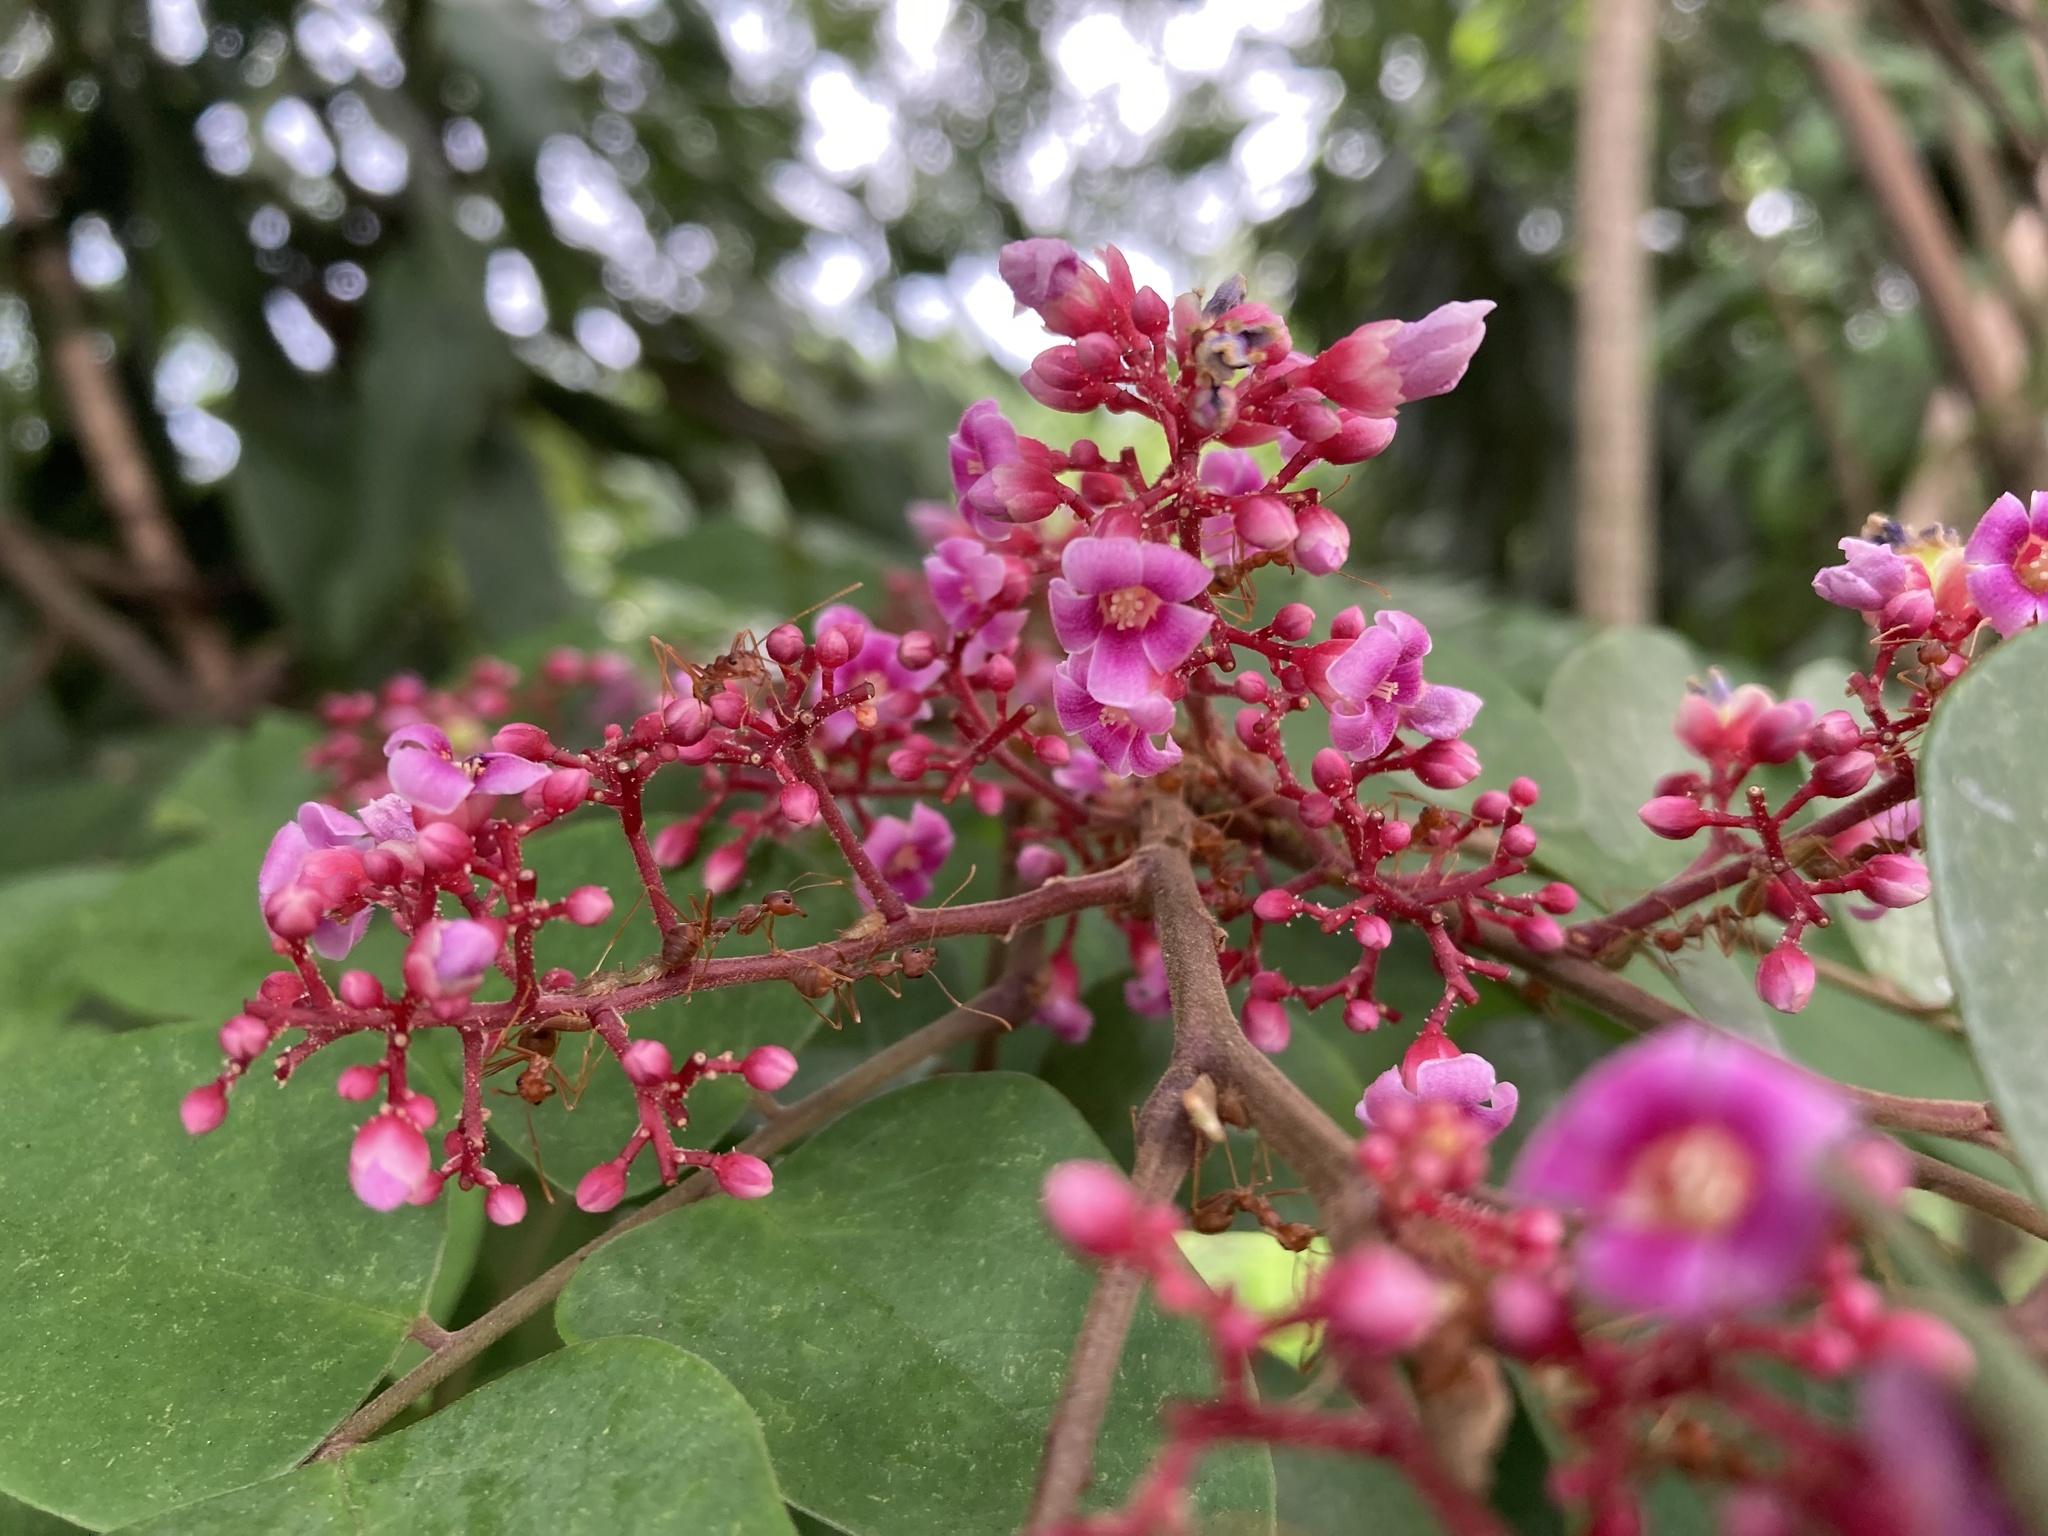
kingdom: Plantae
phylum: Tracheophyta
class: Magnoliopsida
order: Oxalidales
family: Oxalidaceae
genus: Averrhoa
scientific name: Averrhoa carambola
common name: Blimbing
